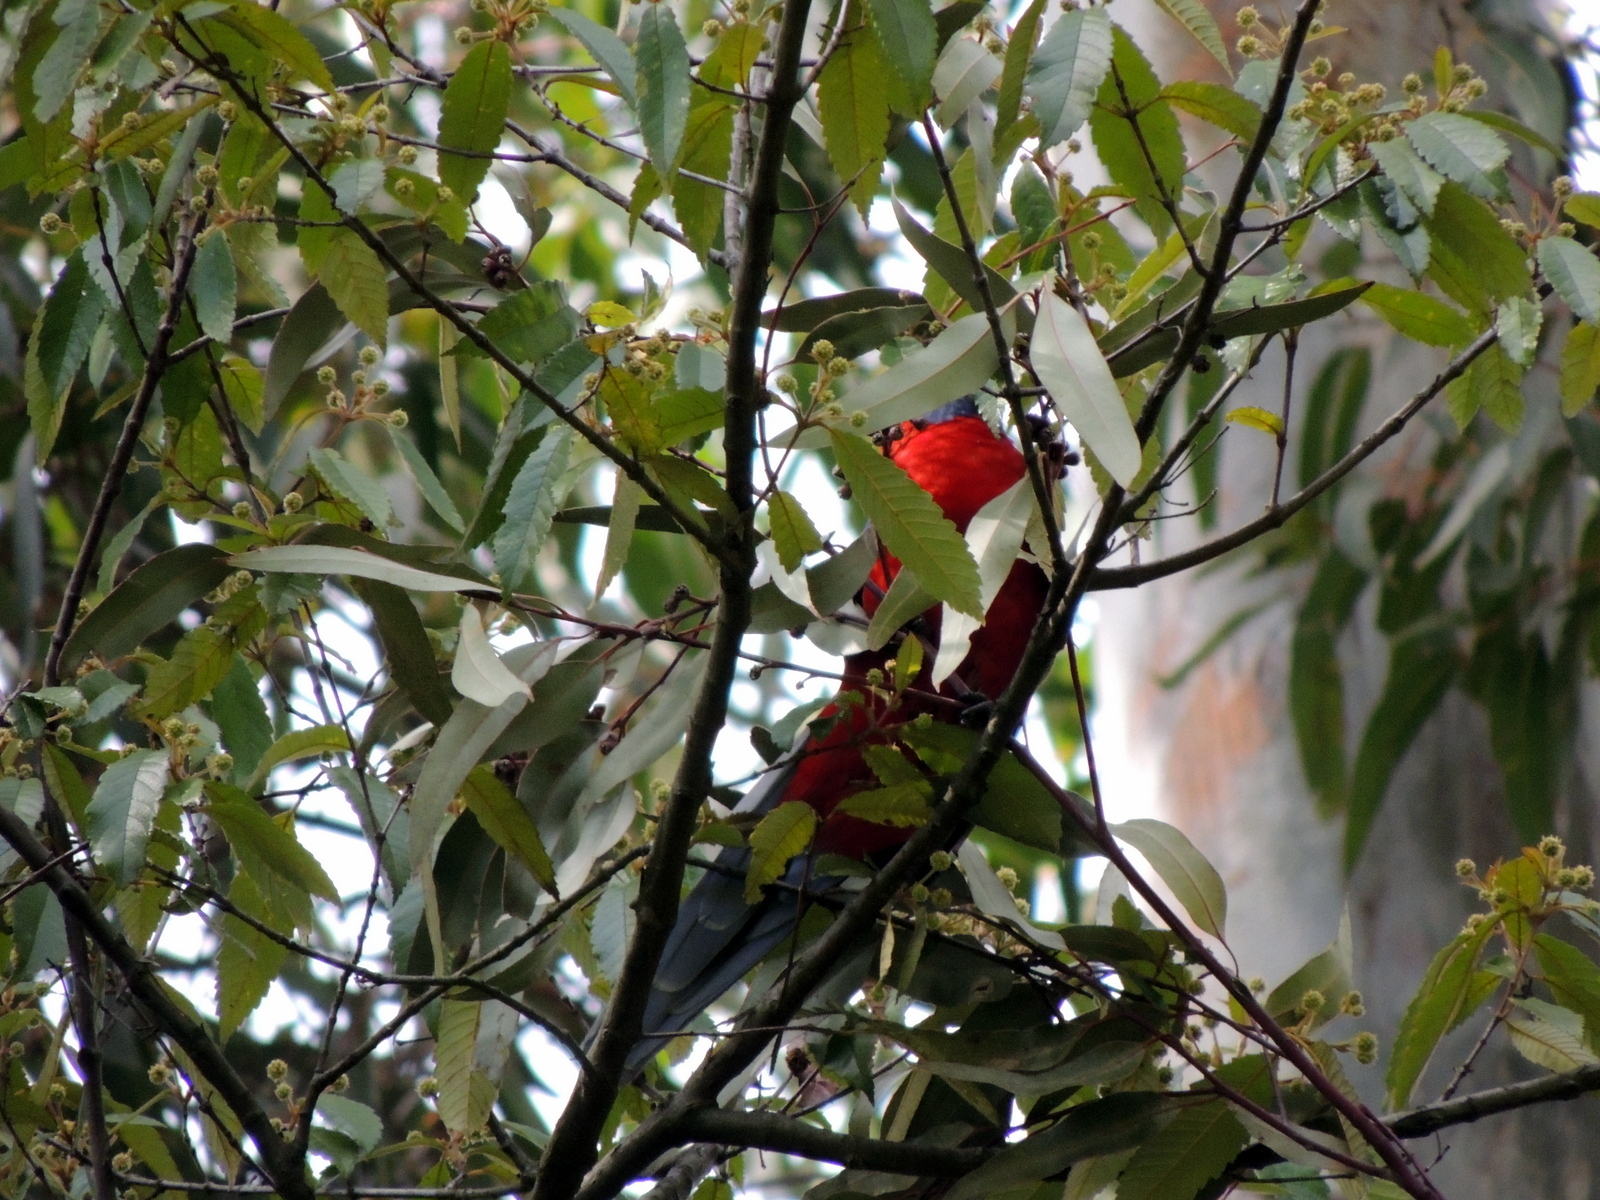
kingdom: Animalia
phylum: Chordata
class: Aves
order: Psittaciformes
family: Psittacidae
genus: Platycercus
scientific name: Platycercus elegans
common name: Crimson rosella
